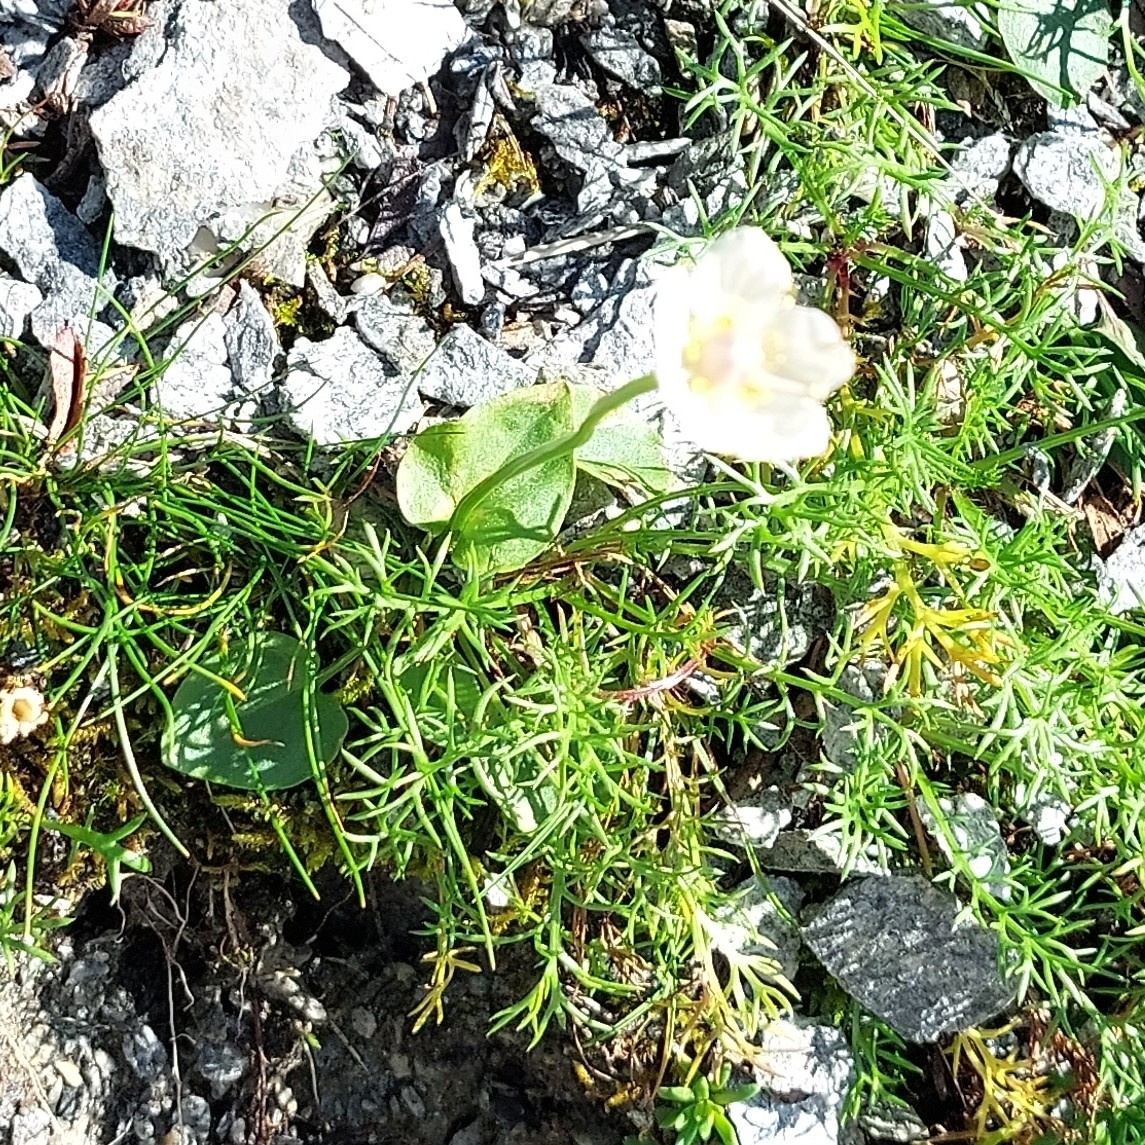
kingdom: Plantae
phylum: Tracheophyta
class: Magnoliopsida
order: Celastrales
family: Parnassiaceae
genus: Parnassia
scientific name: Parnassia palustris
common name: Grass-of-parnassus
